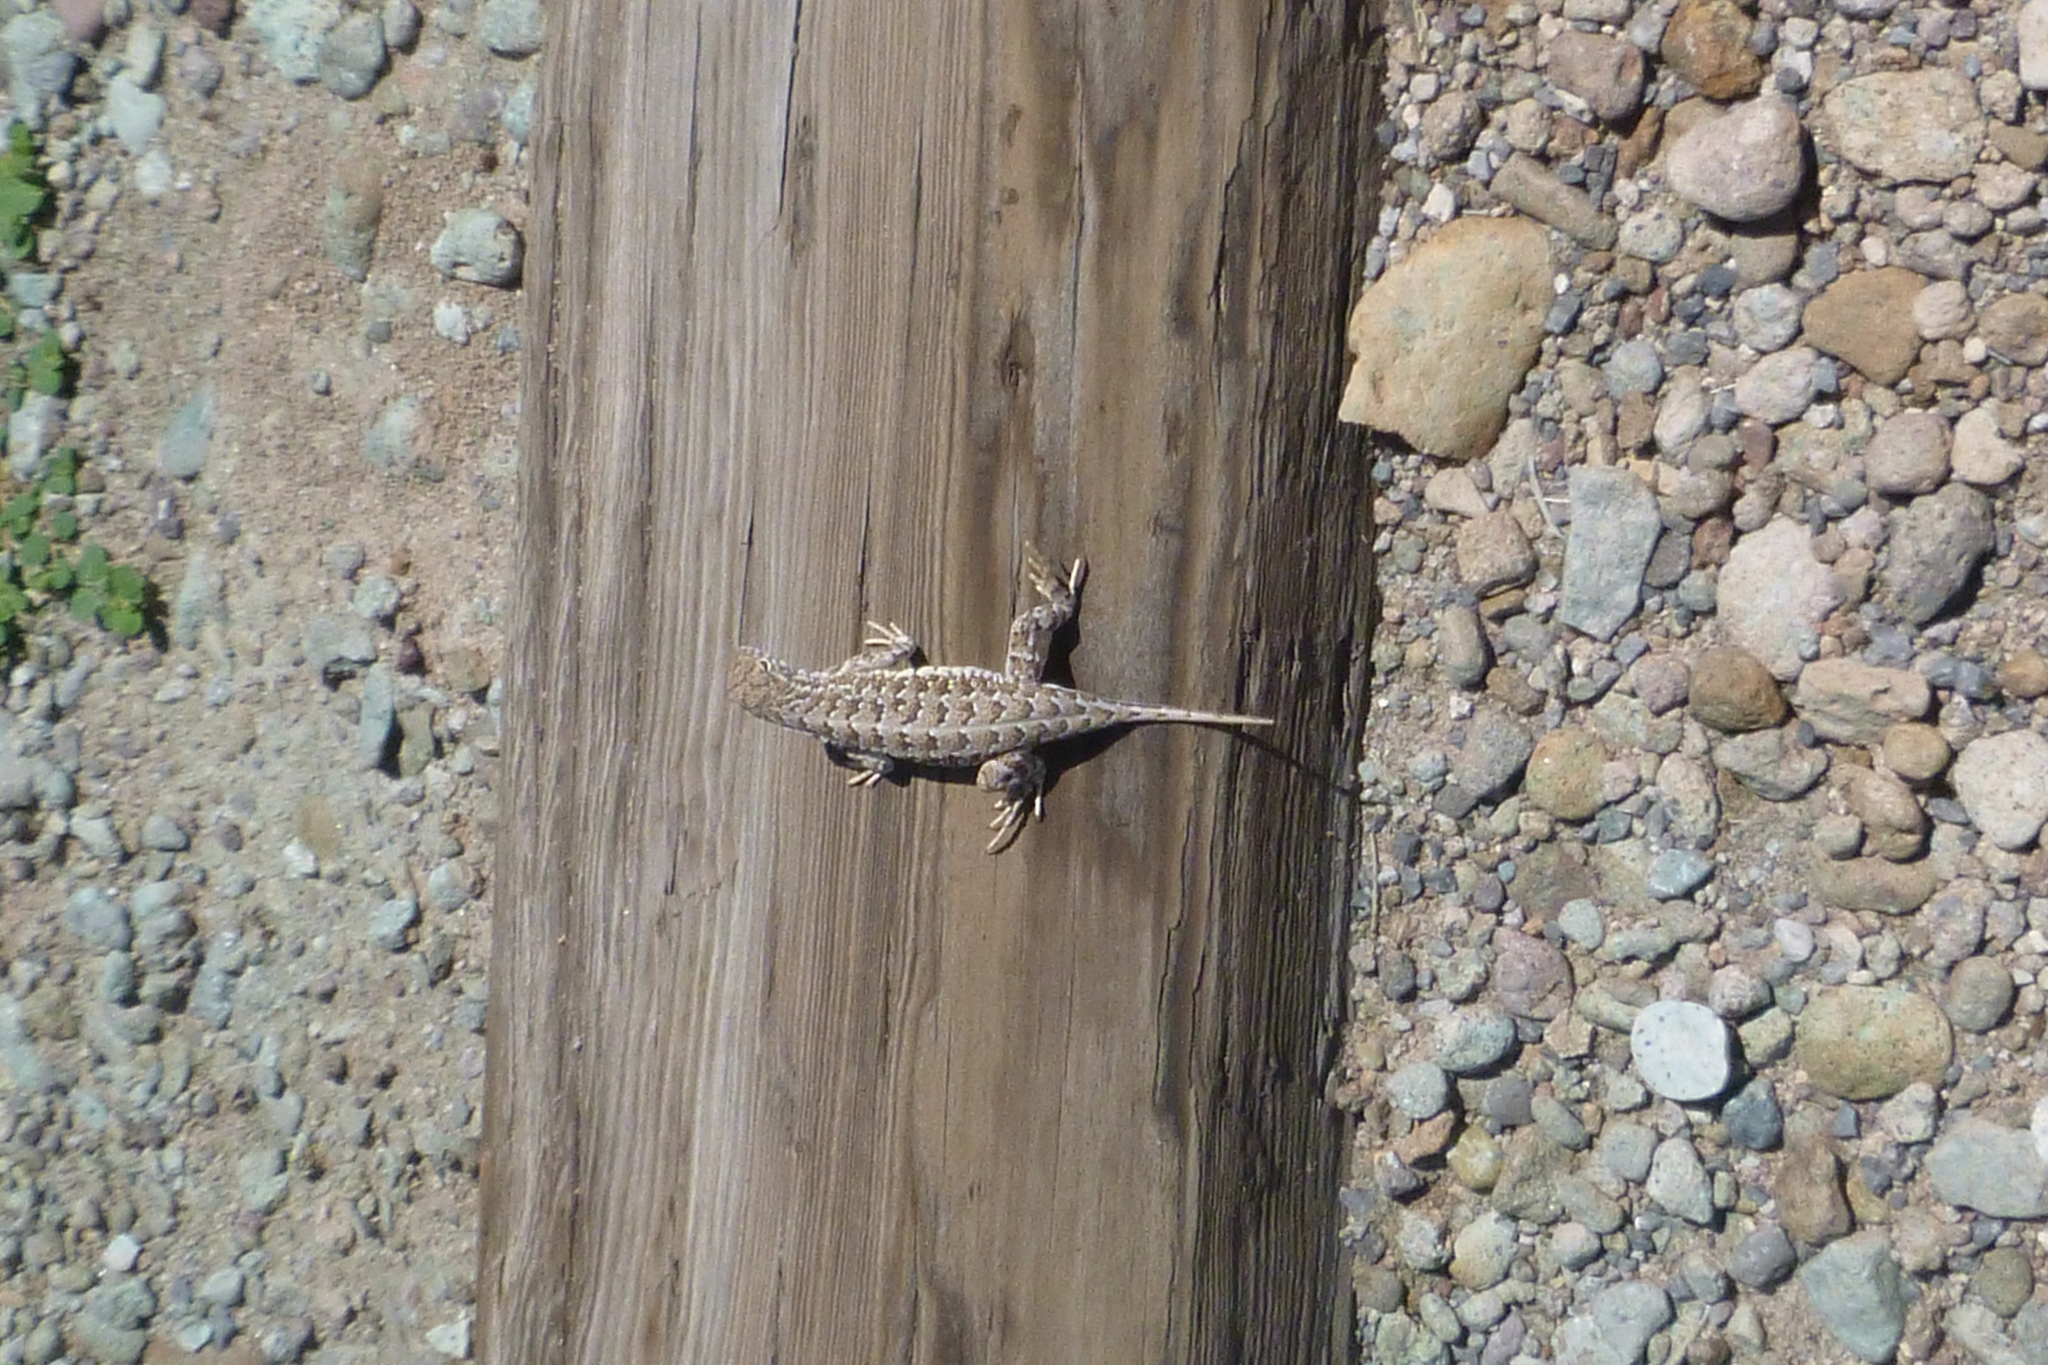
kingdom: Animalia
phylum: Chordata
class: Squamata
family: Phrynosomatidae
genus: Holbrookia
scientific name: Holbrookia maculata
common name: Lesser earless lizard
